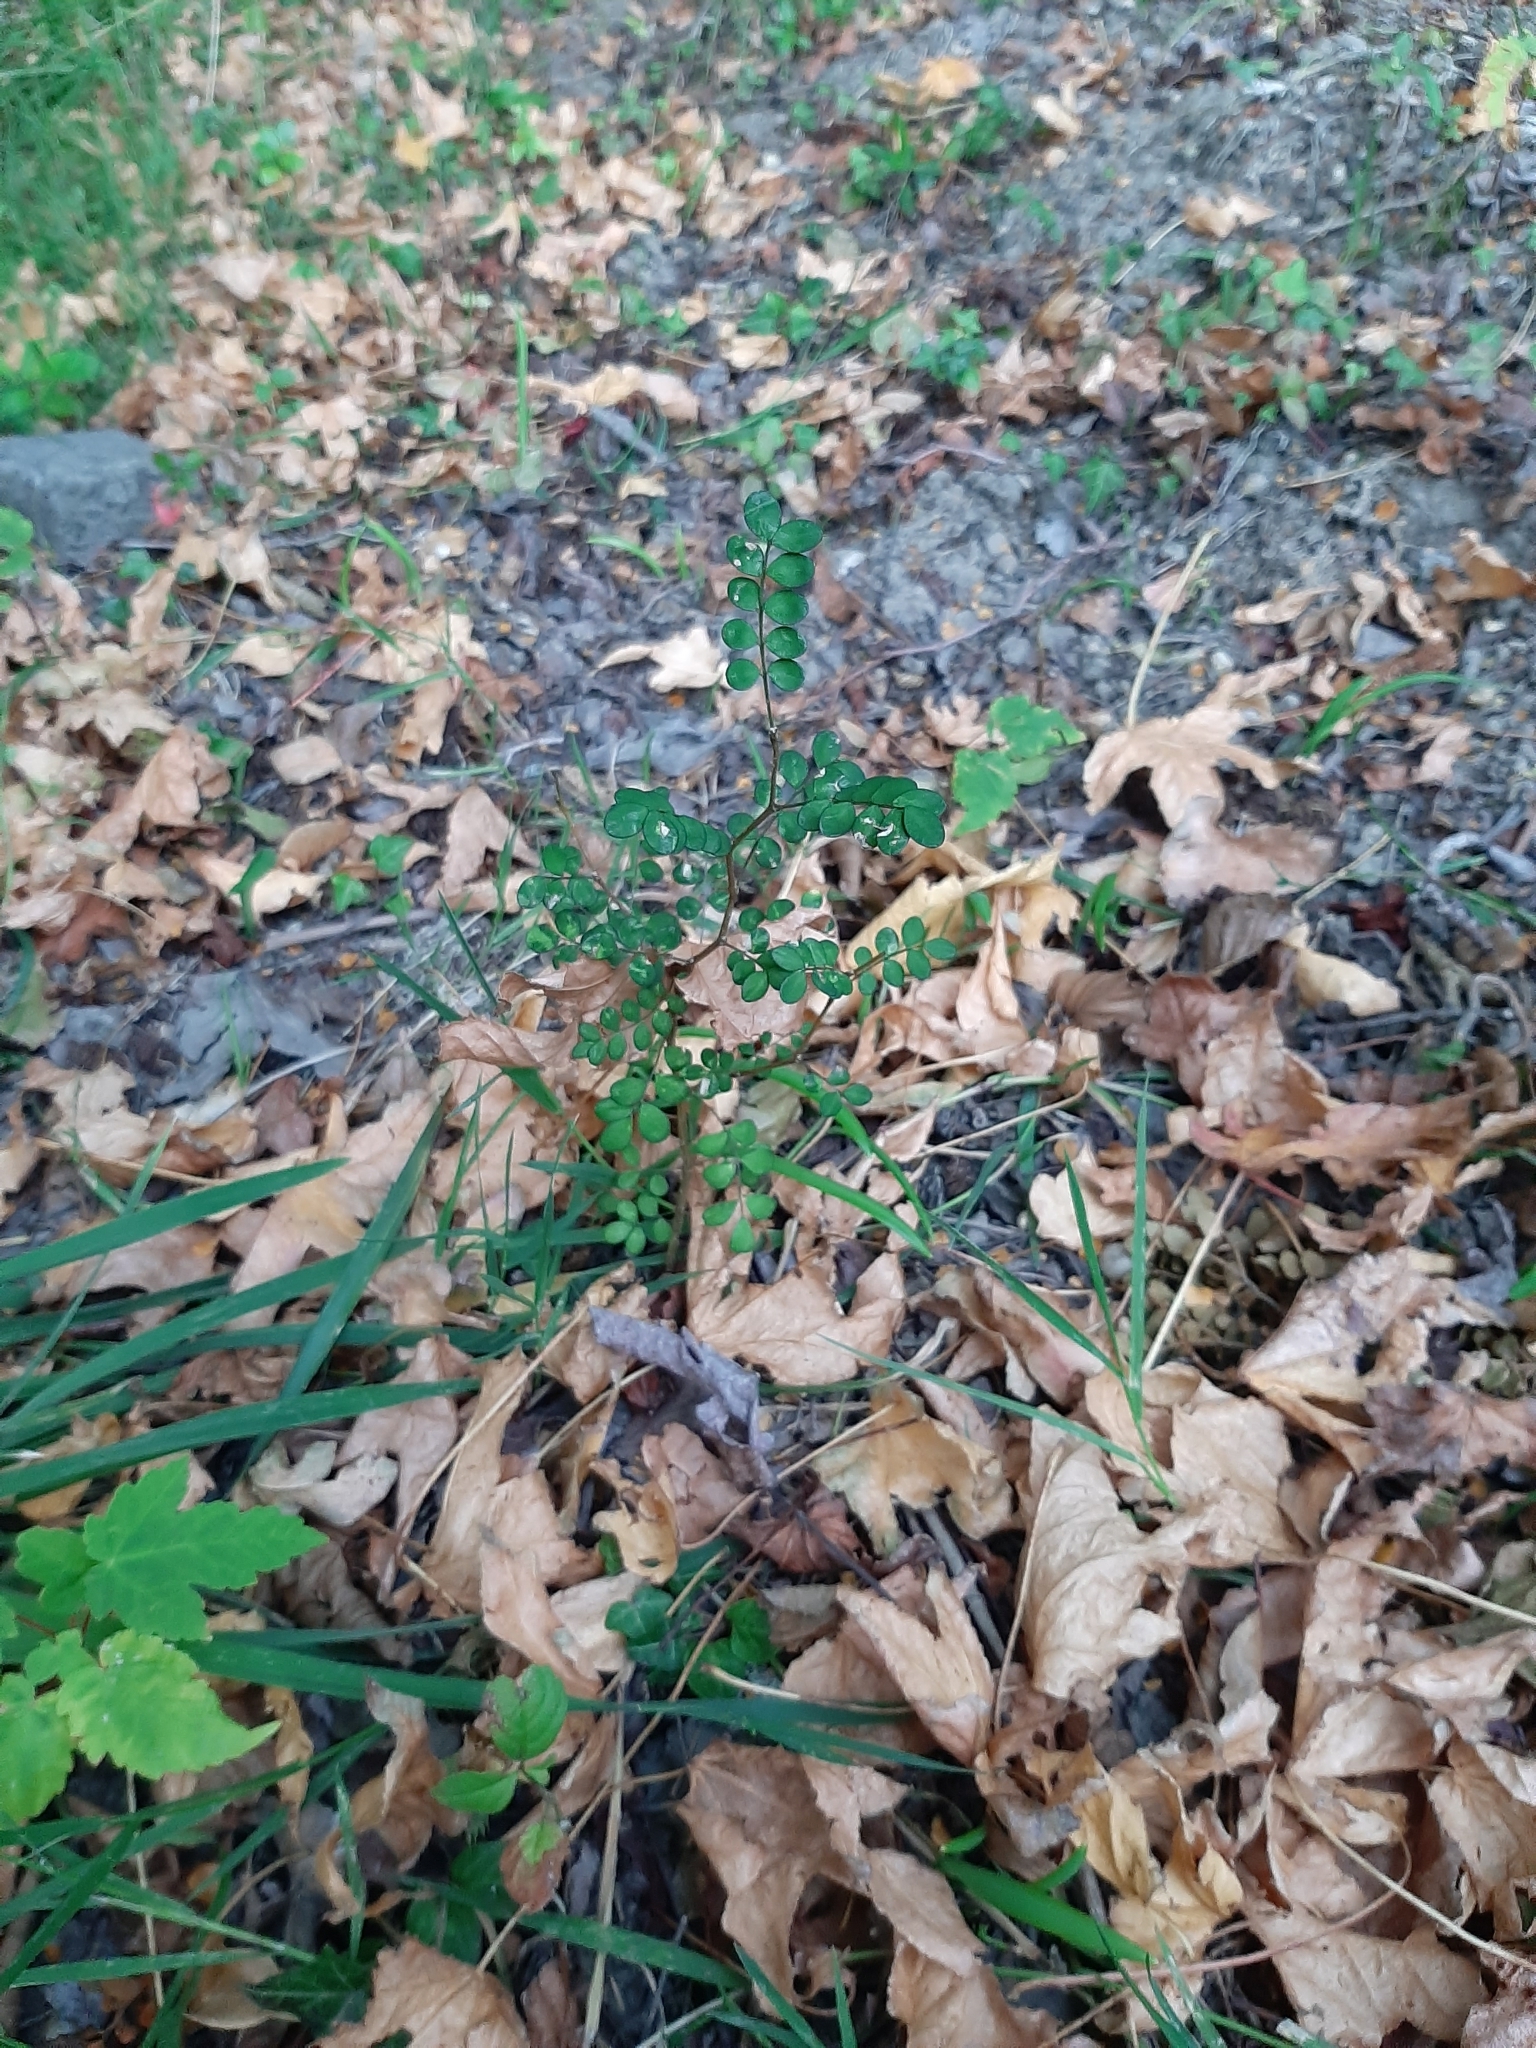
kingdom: Plantae
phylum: Tracheophyta
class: Magnoliopsida
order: Fabales
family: Fabaceae
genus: Sophora
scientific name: Sophora microphylla
